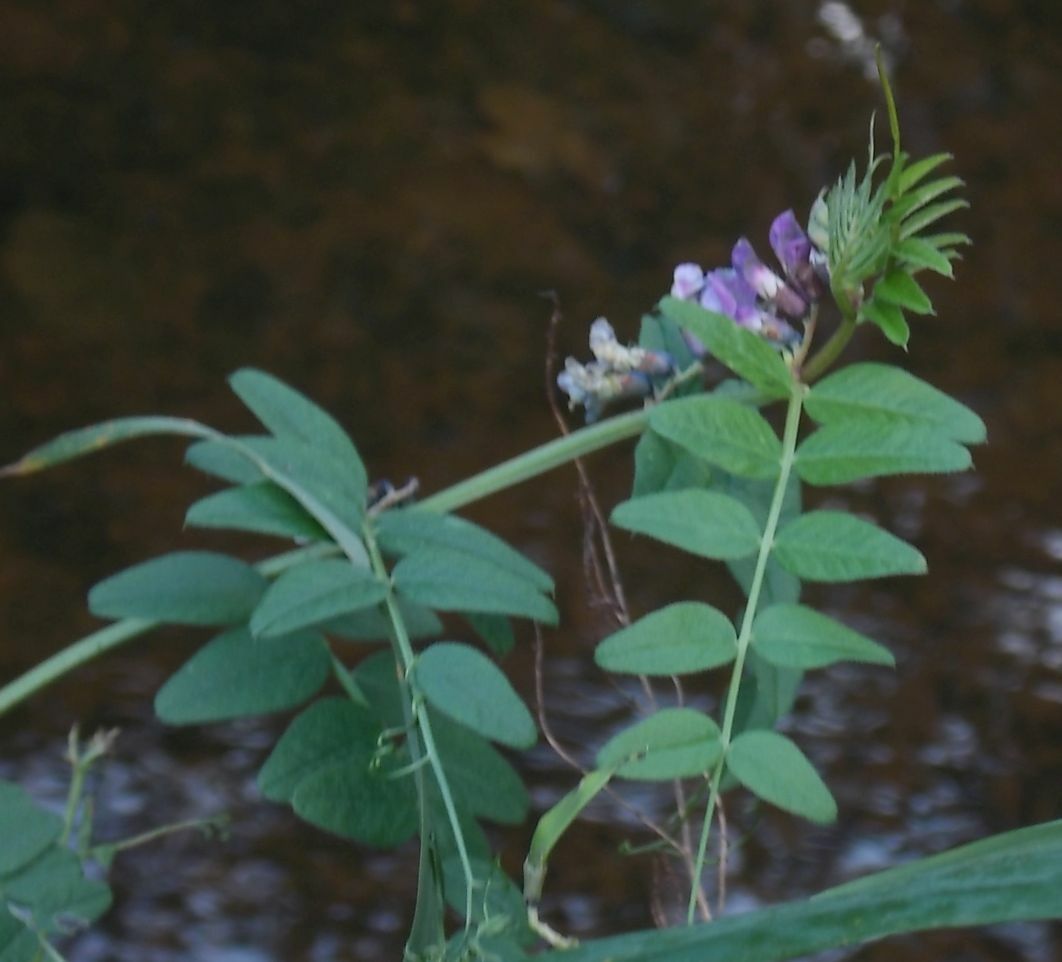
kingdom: Plantae
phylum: Tracheophyta
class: Magnoliopsida
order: Fabales
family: Fabaceae
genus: Vicia
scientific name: Vicia sepium
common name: Bush vetch
